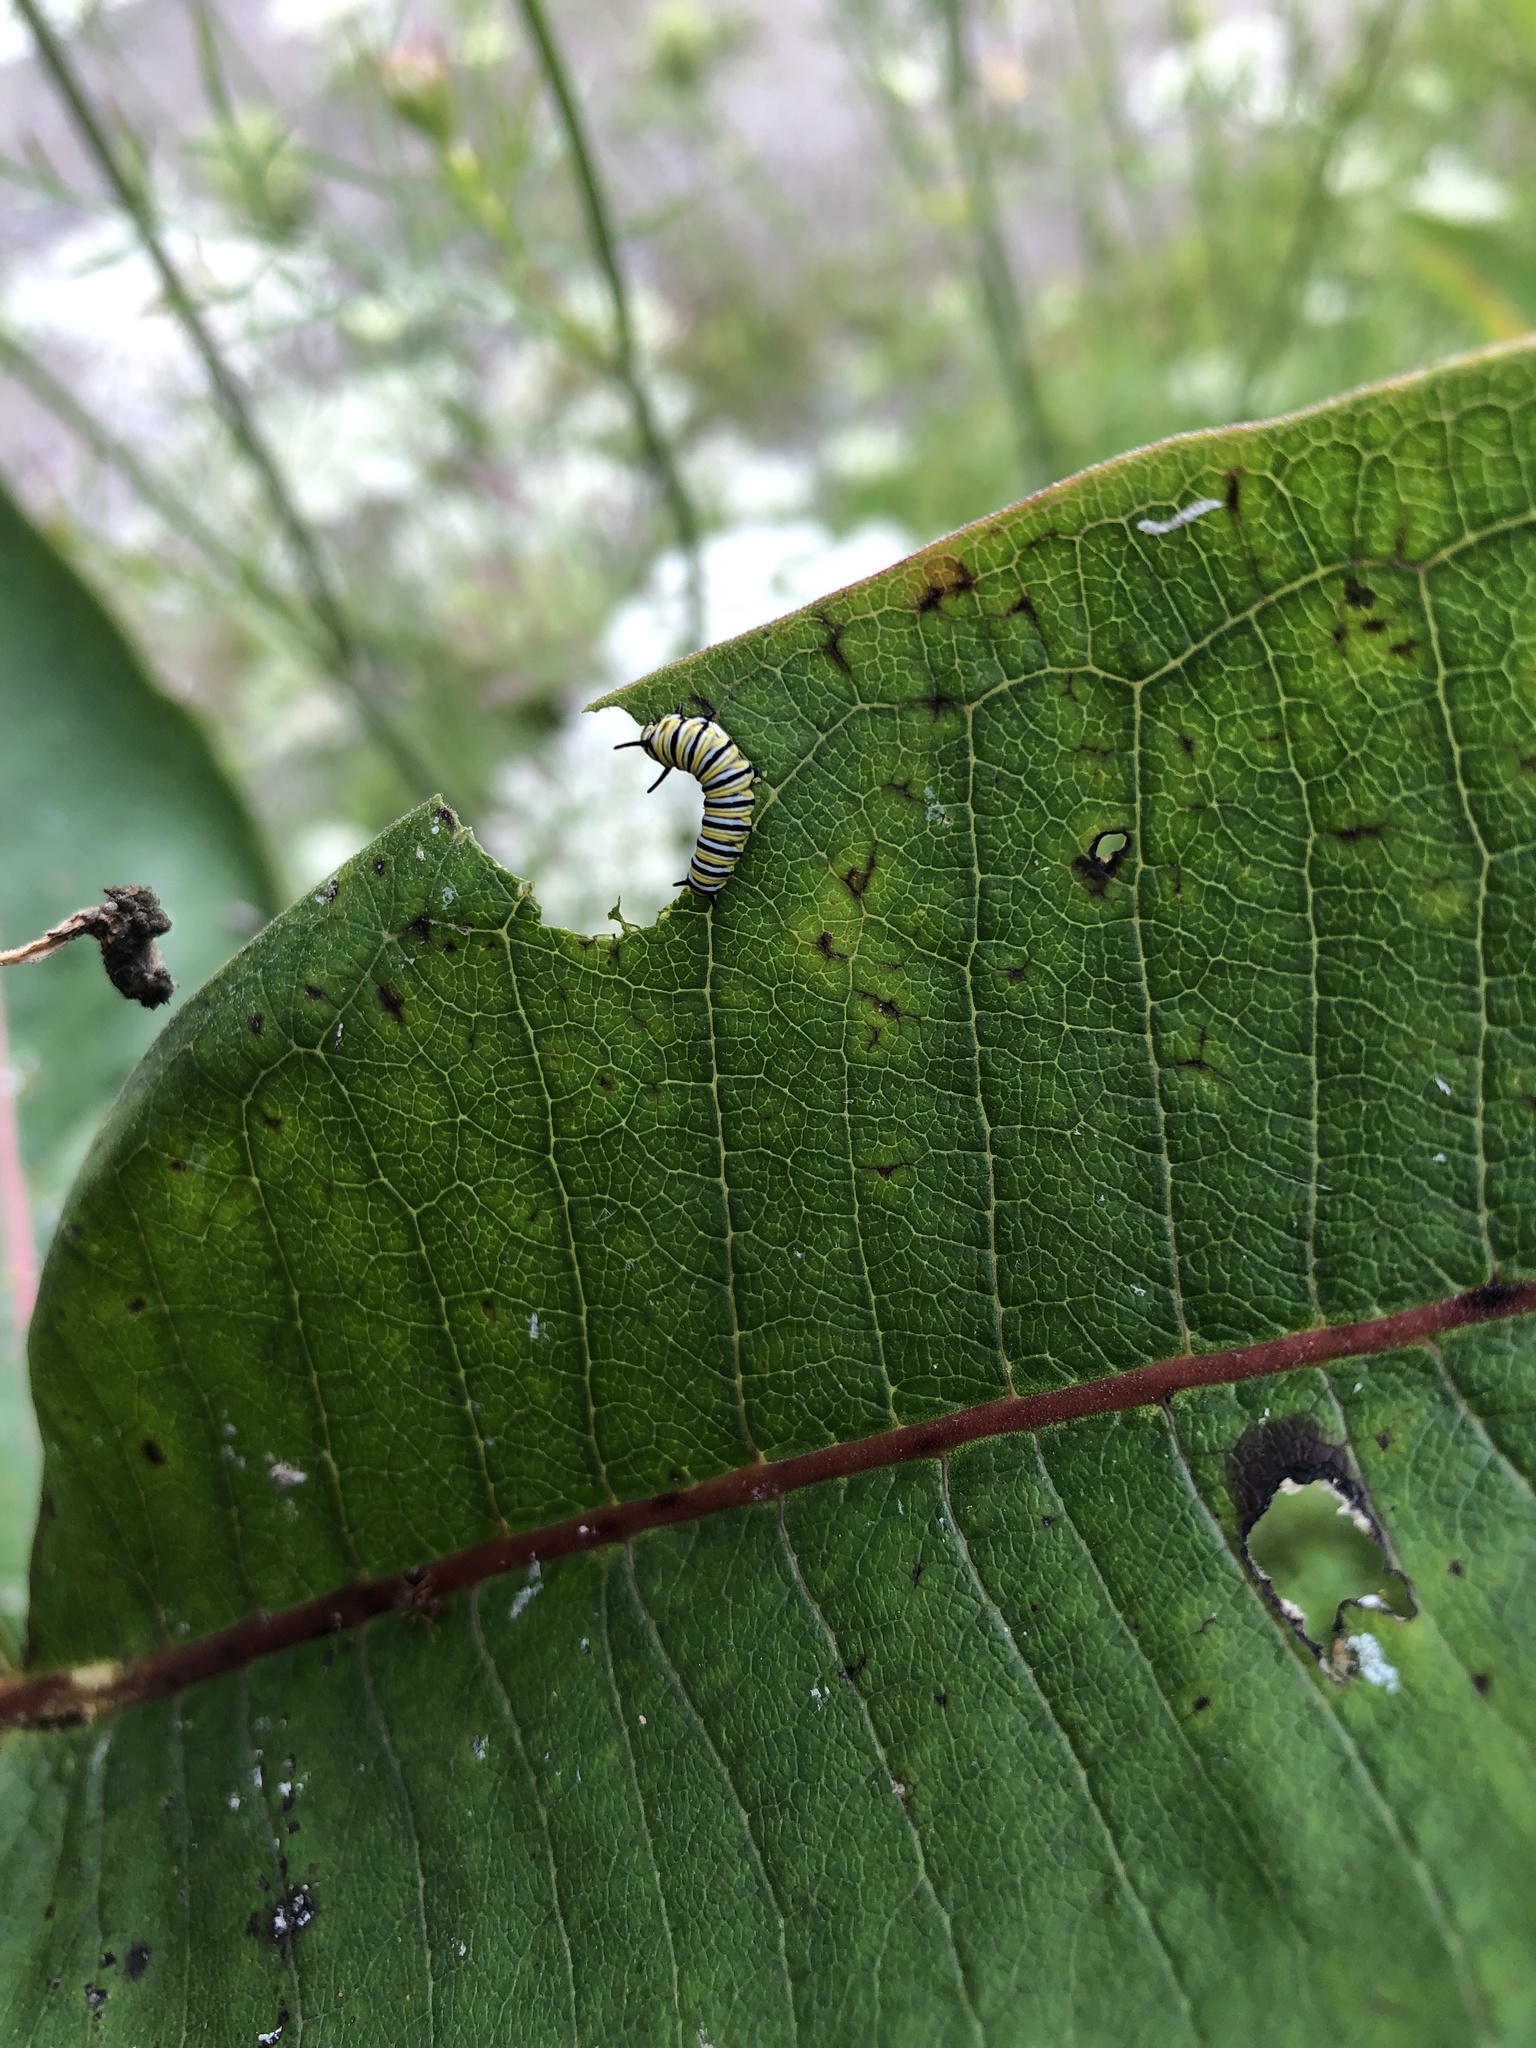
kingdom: Animalia
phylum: Arthropoda
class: Insecta
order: Lepidoptera
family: Nymphalidae
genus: Danaus
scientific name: Danaus plexippus
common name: Monarch
